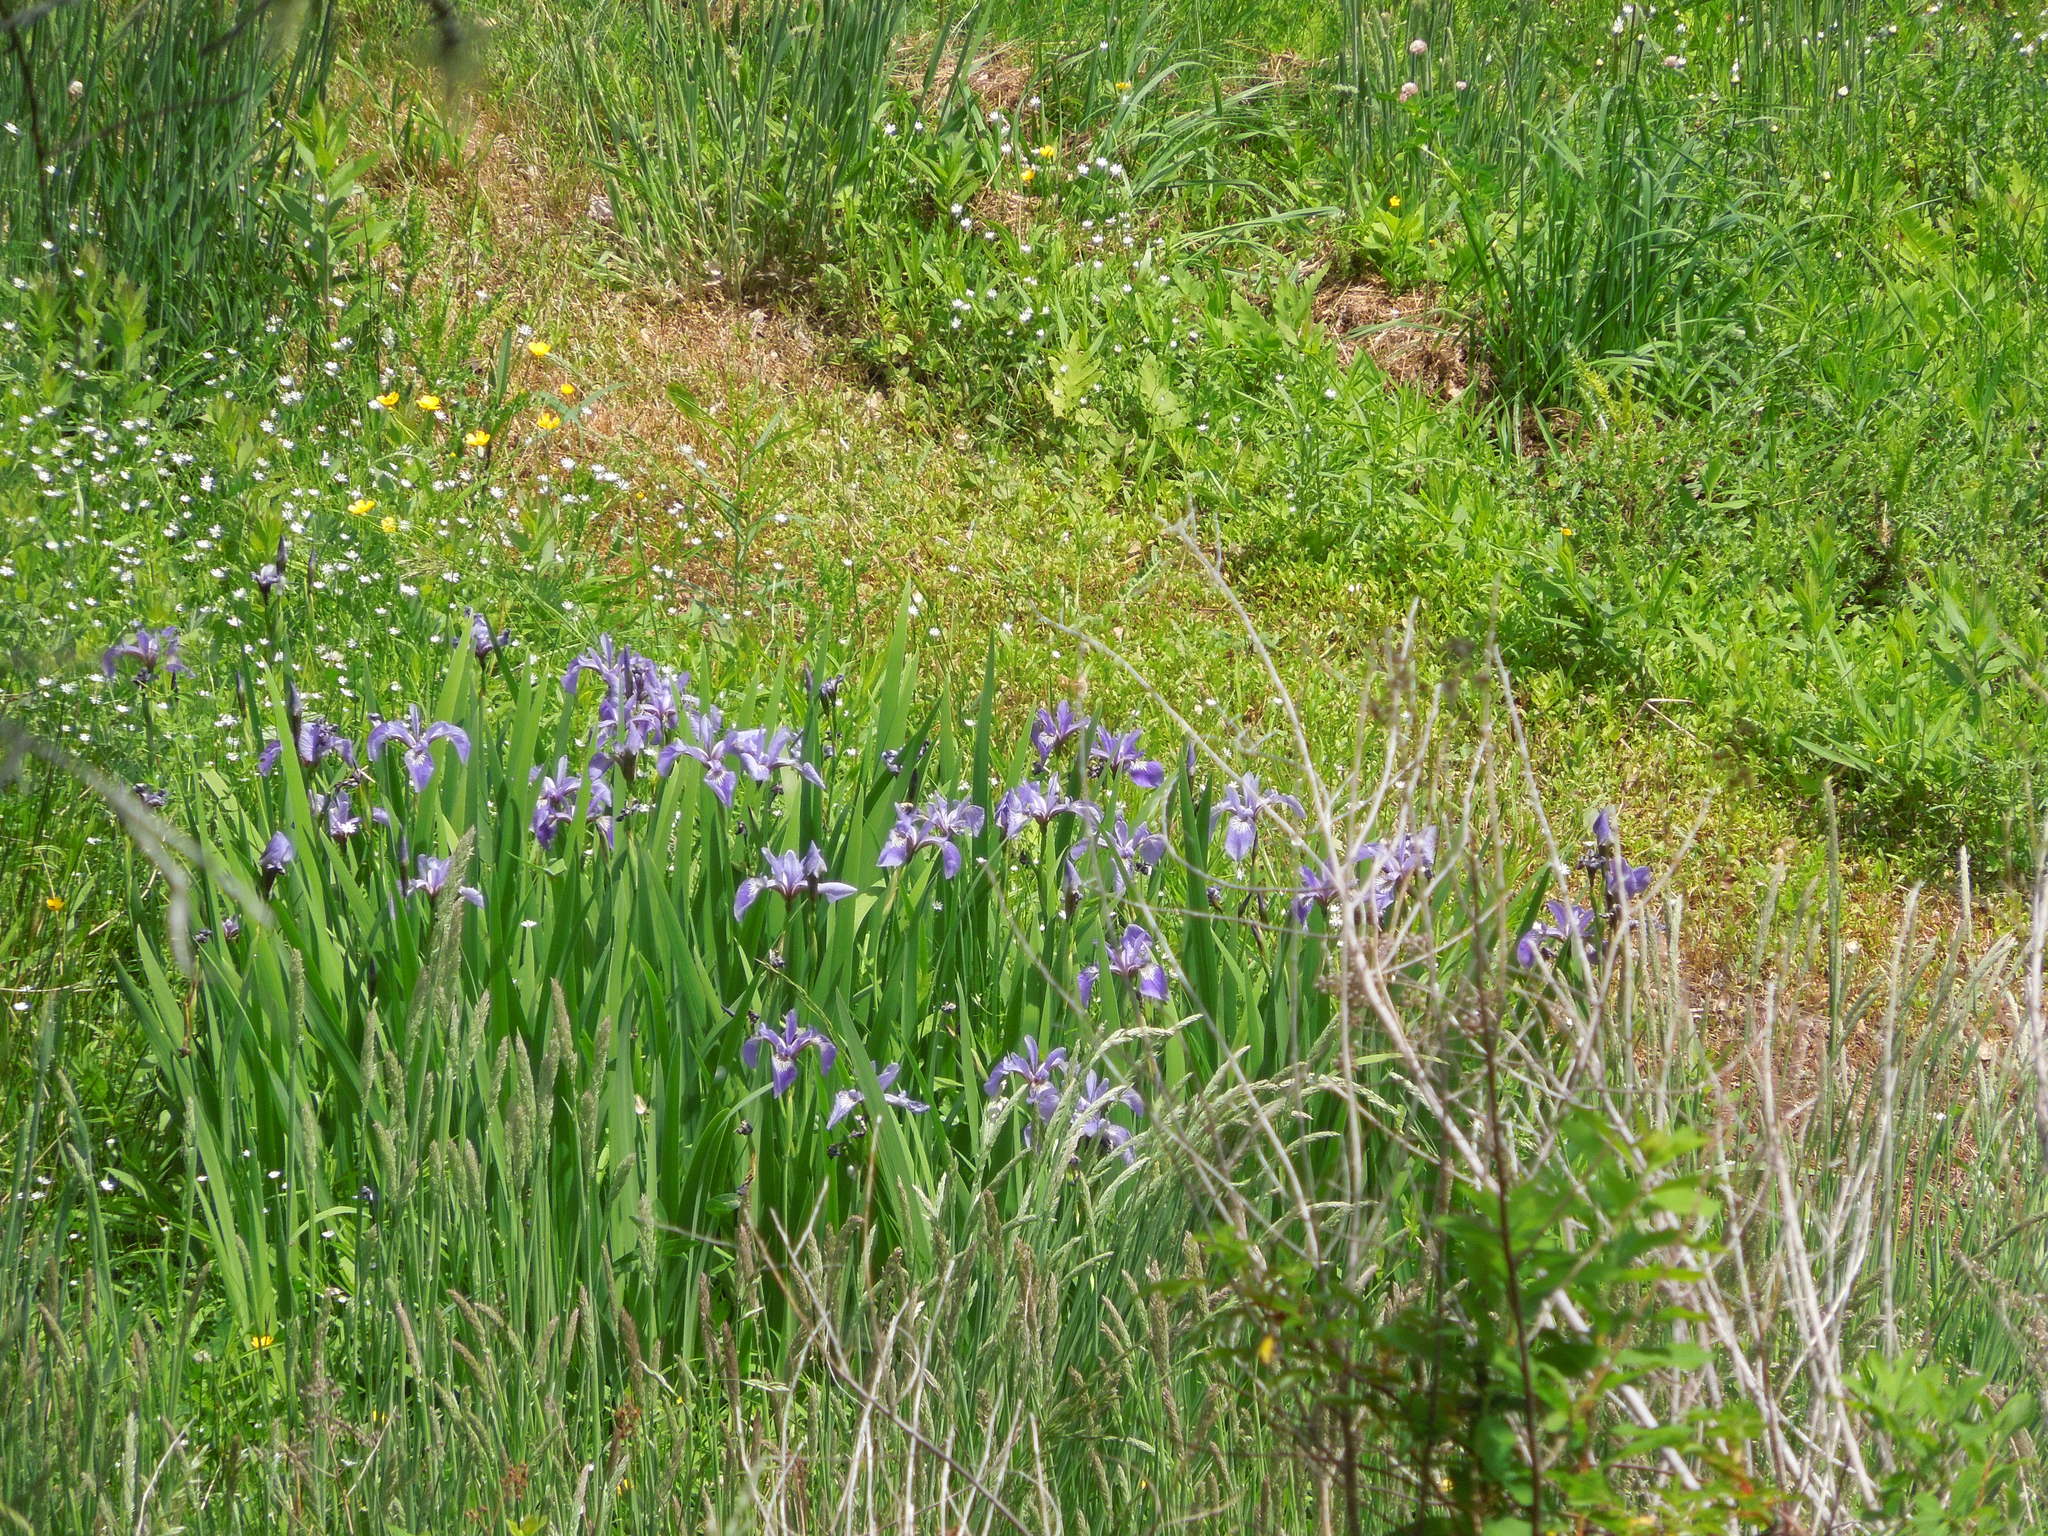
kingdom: Plantae
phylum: Tracheophyta
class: Liliopsida
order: Asparagales
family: Iridaceae
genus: Iris
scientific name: Iris versicolor
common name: Purple iris
